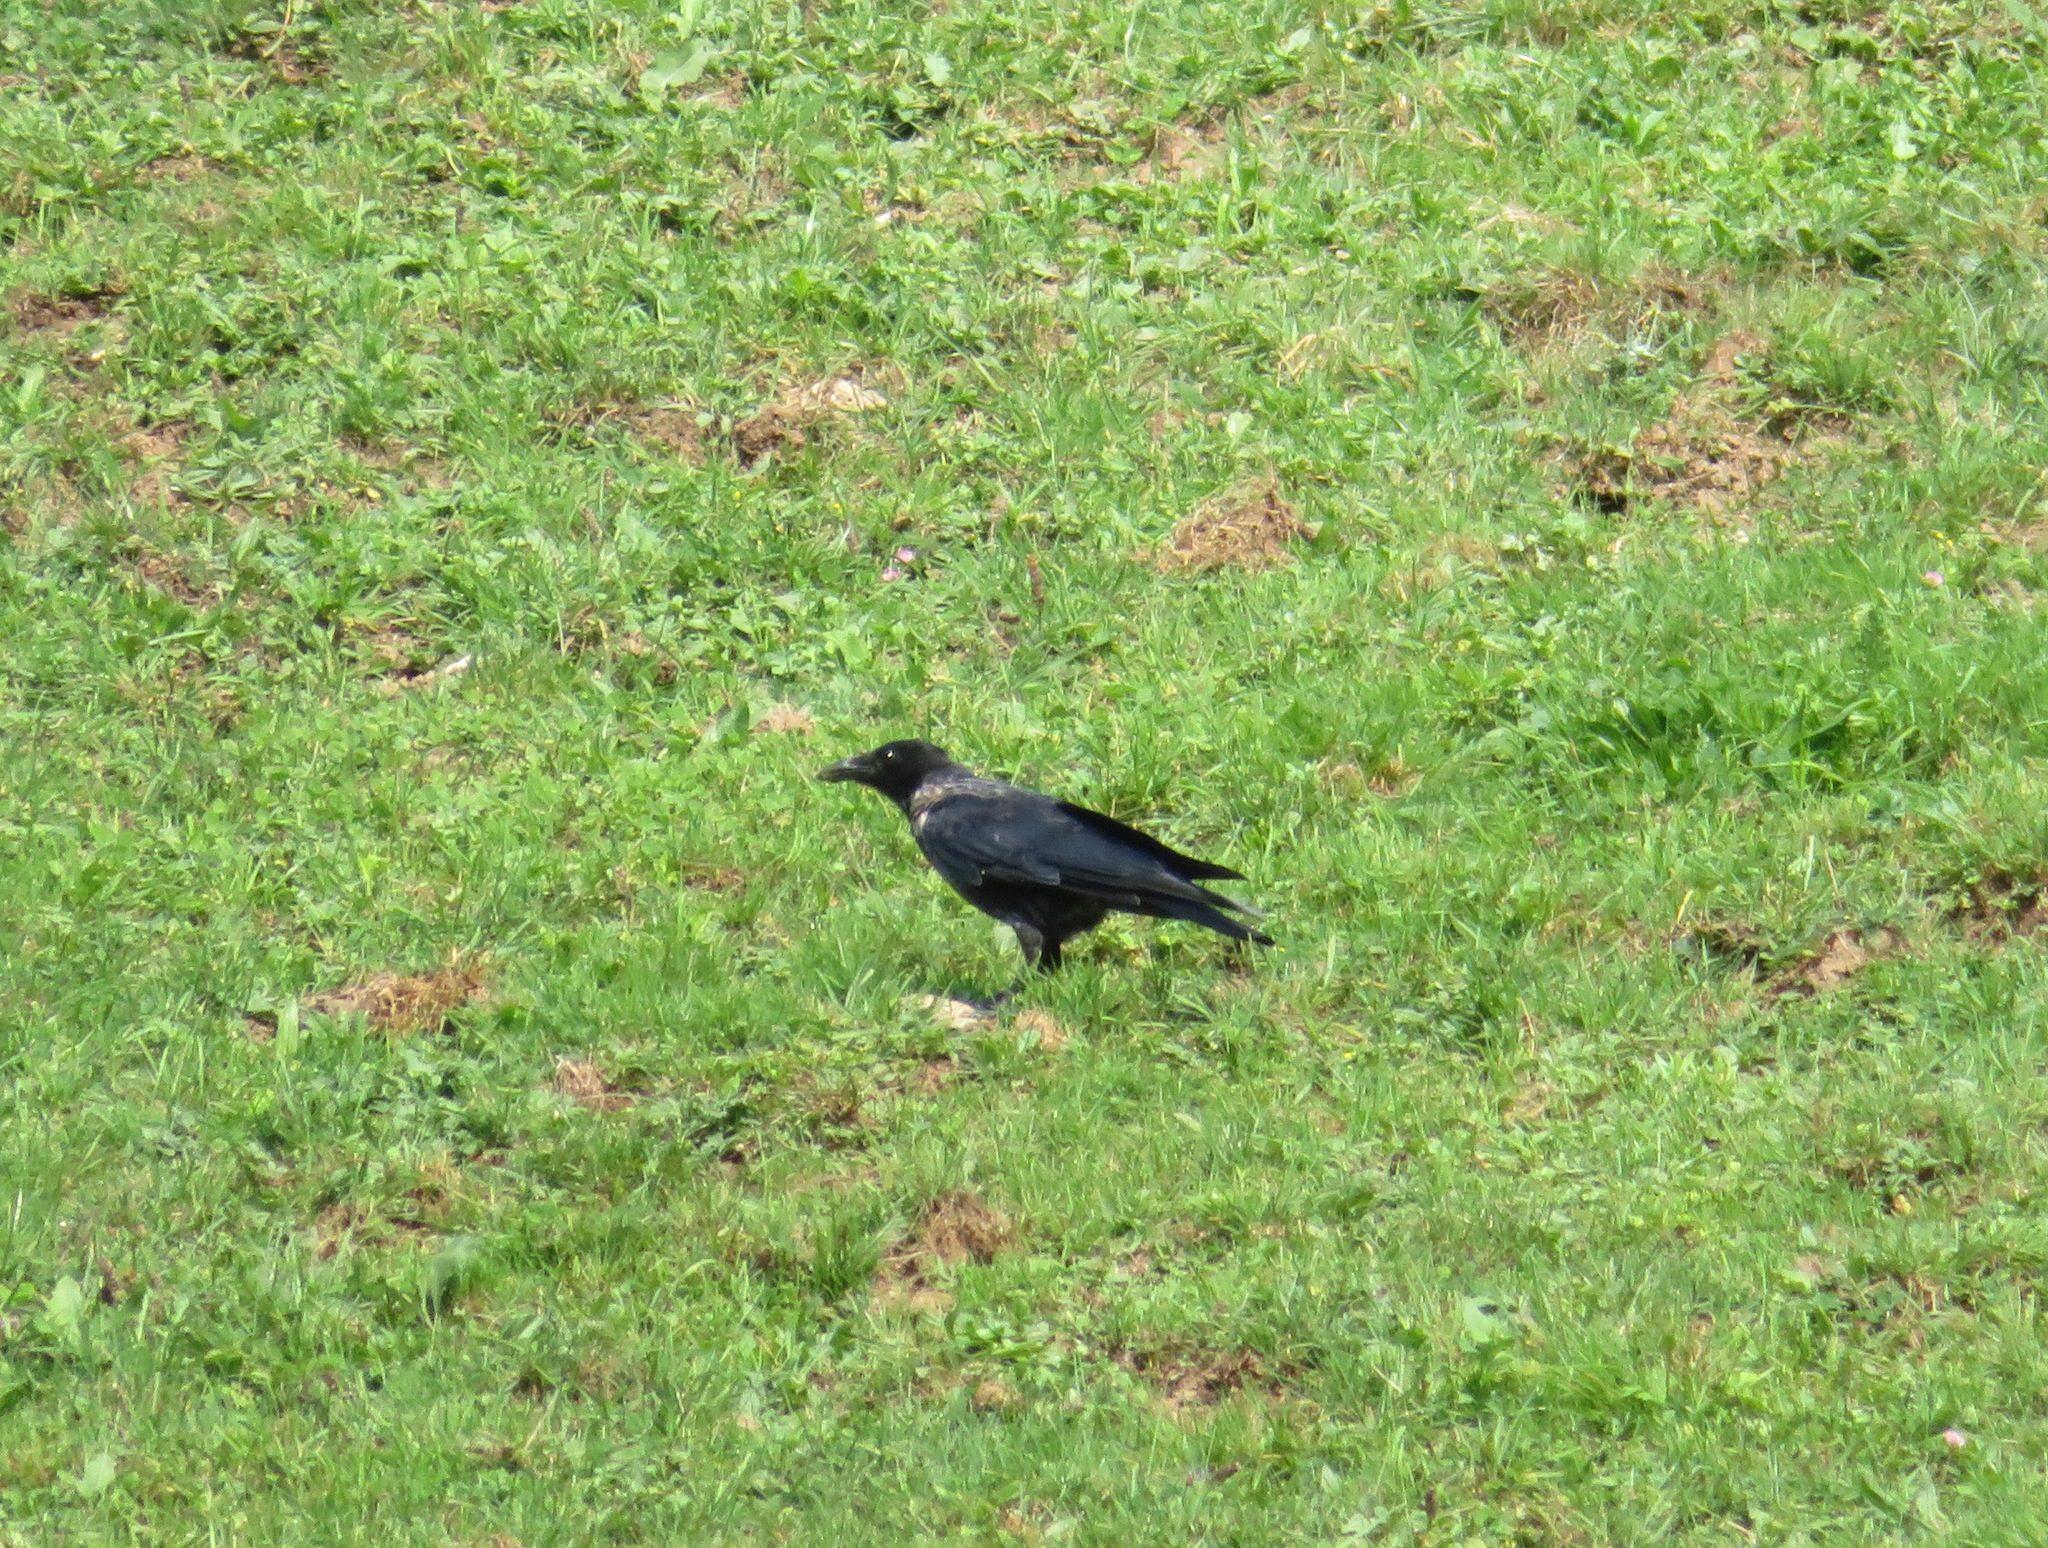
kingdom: Animalia
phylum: Chordata
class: Aves
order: Passeriformes
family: Corvidae
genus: Corvus
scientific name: Corvus
